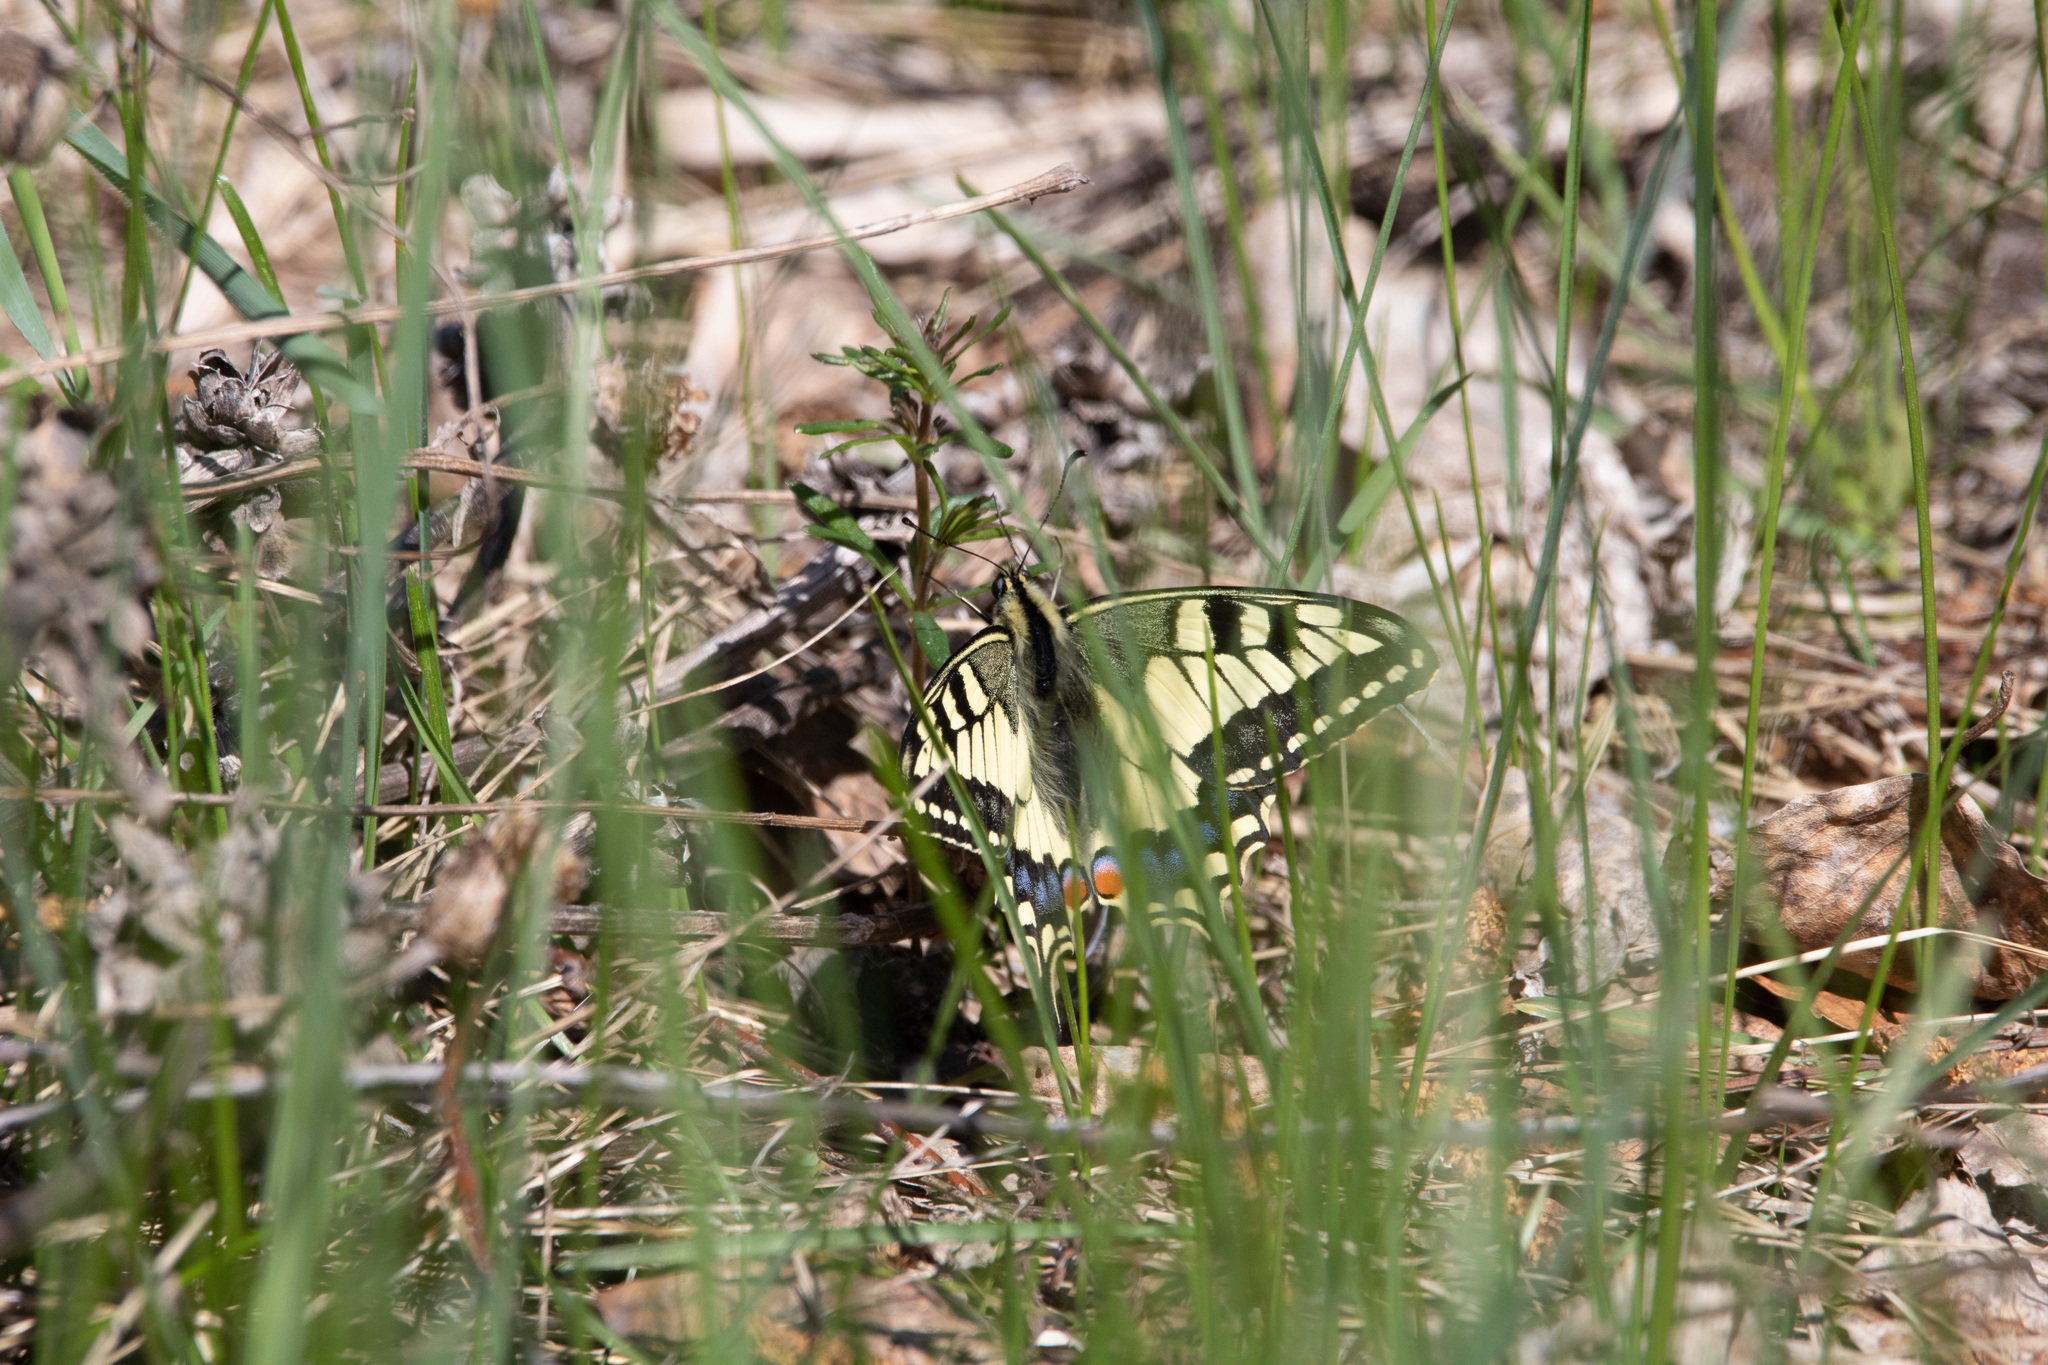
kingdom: Animalia
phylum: Arthropoda
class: Insecta
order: Lepidoptera
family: Papilionidae
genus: Papilio
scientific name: Papilio machaon
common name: Swallowtail
